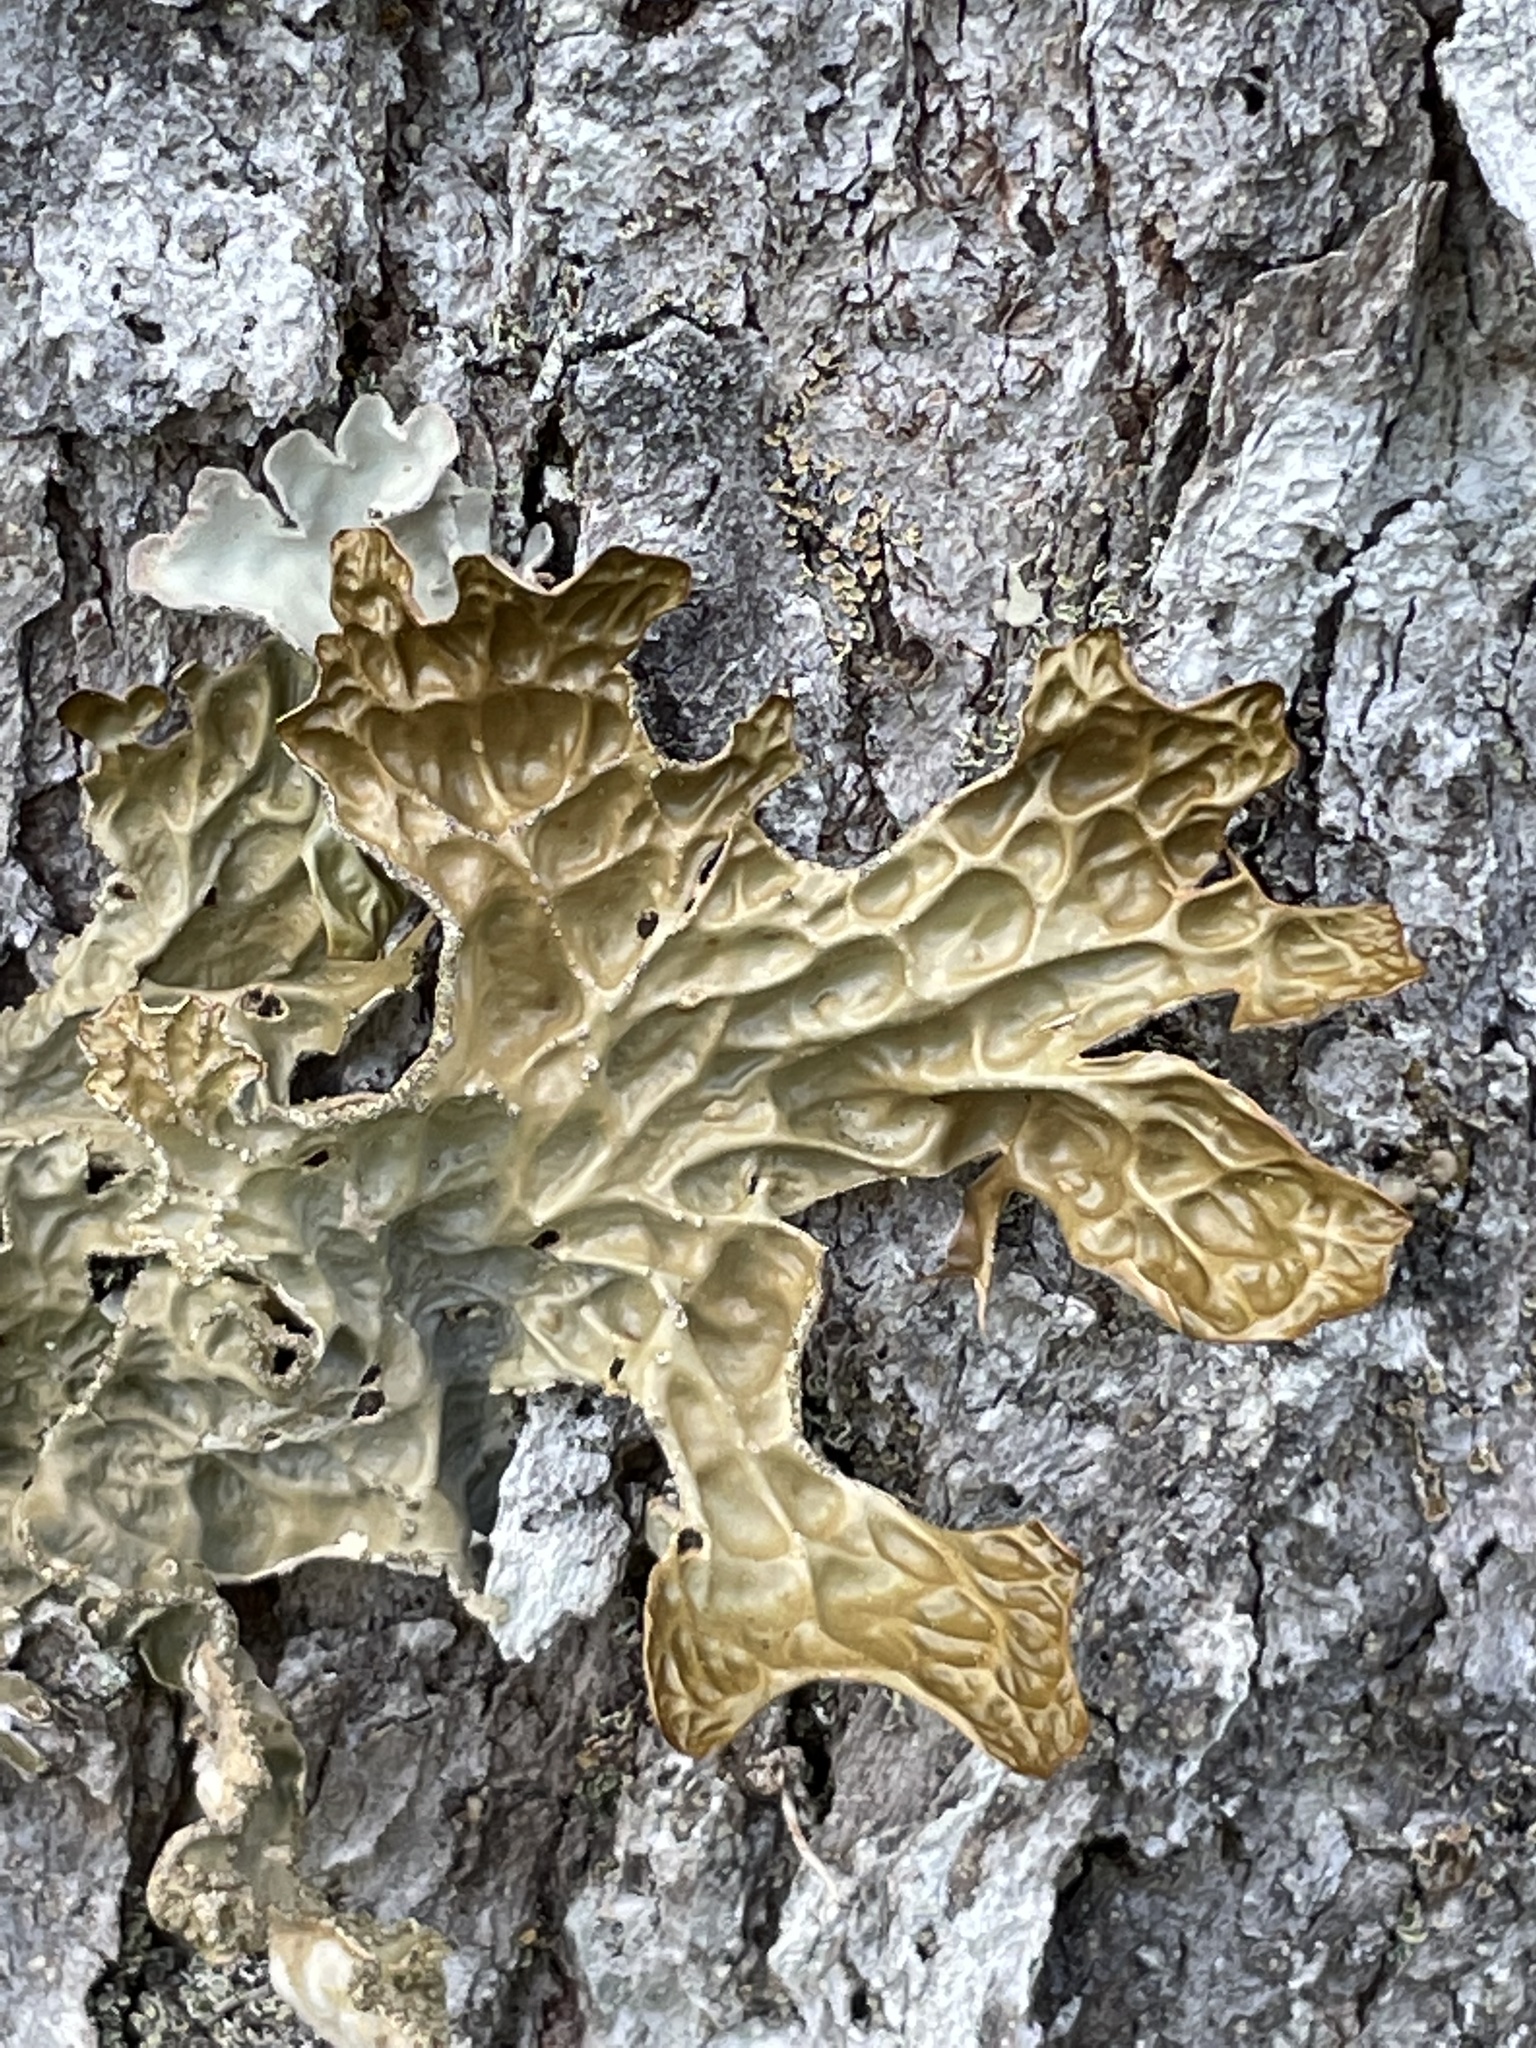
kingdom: Fungi
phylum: Ascomycota
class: Lecanoromycetes
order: Peltigerales
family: Lobariaceae
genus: Lobaria
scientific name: Lobaria pulmonaria
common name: Lungwort
